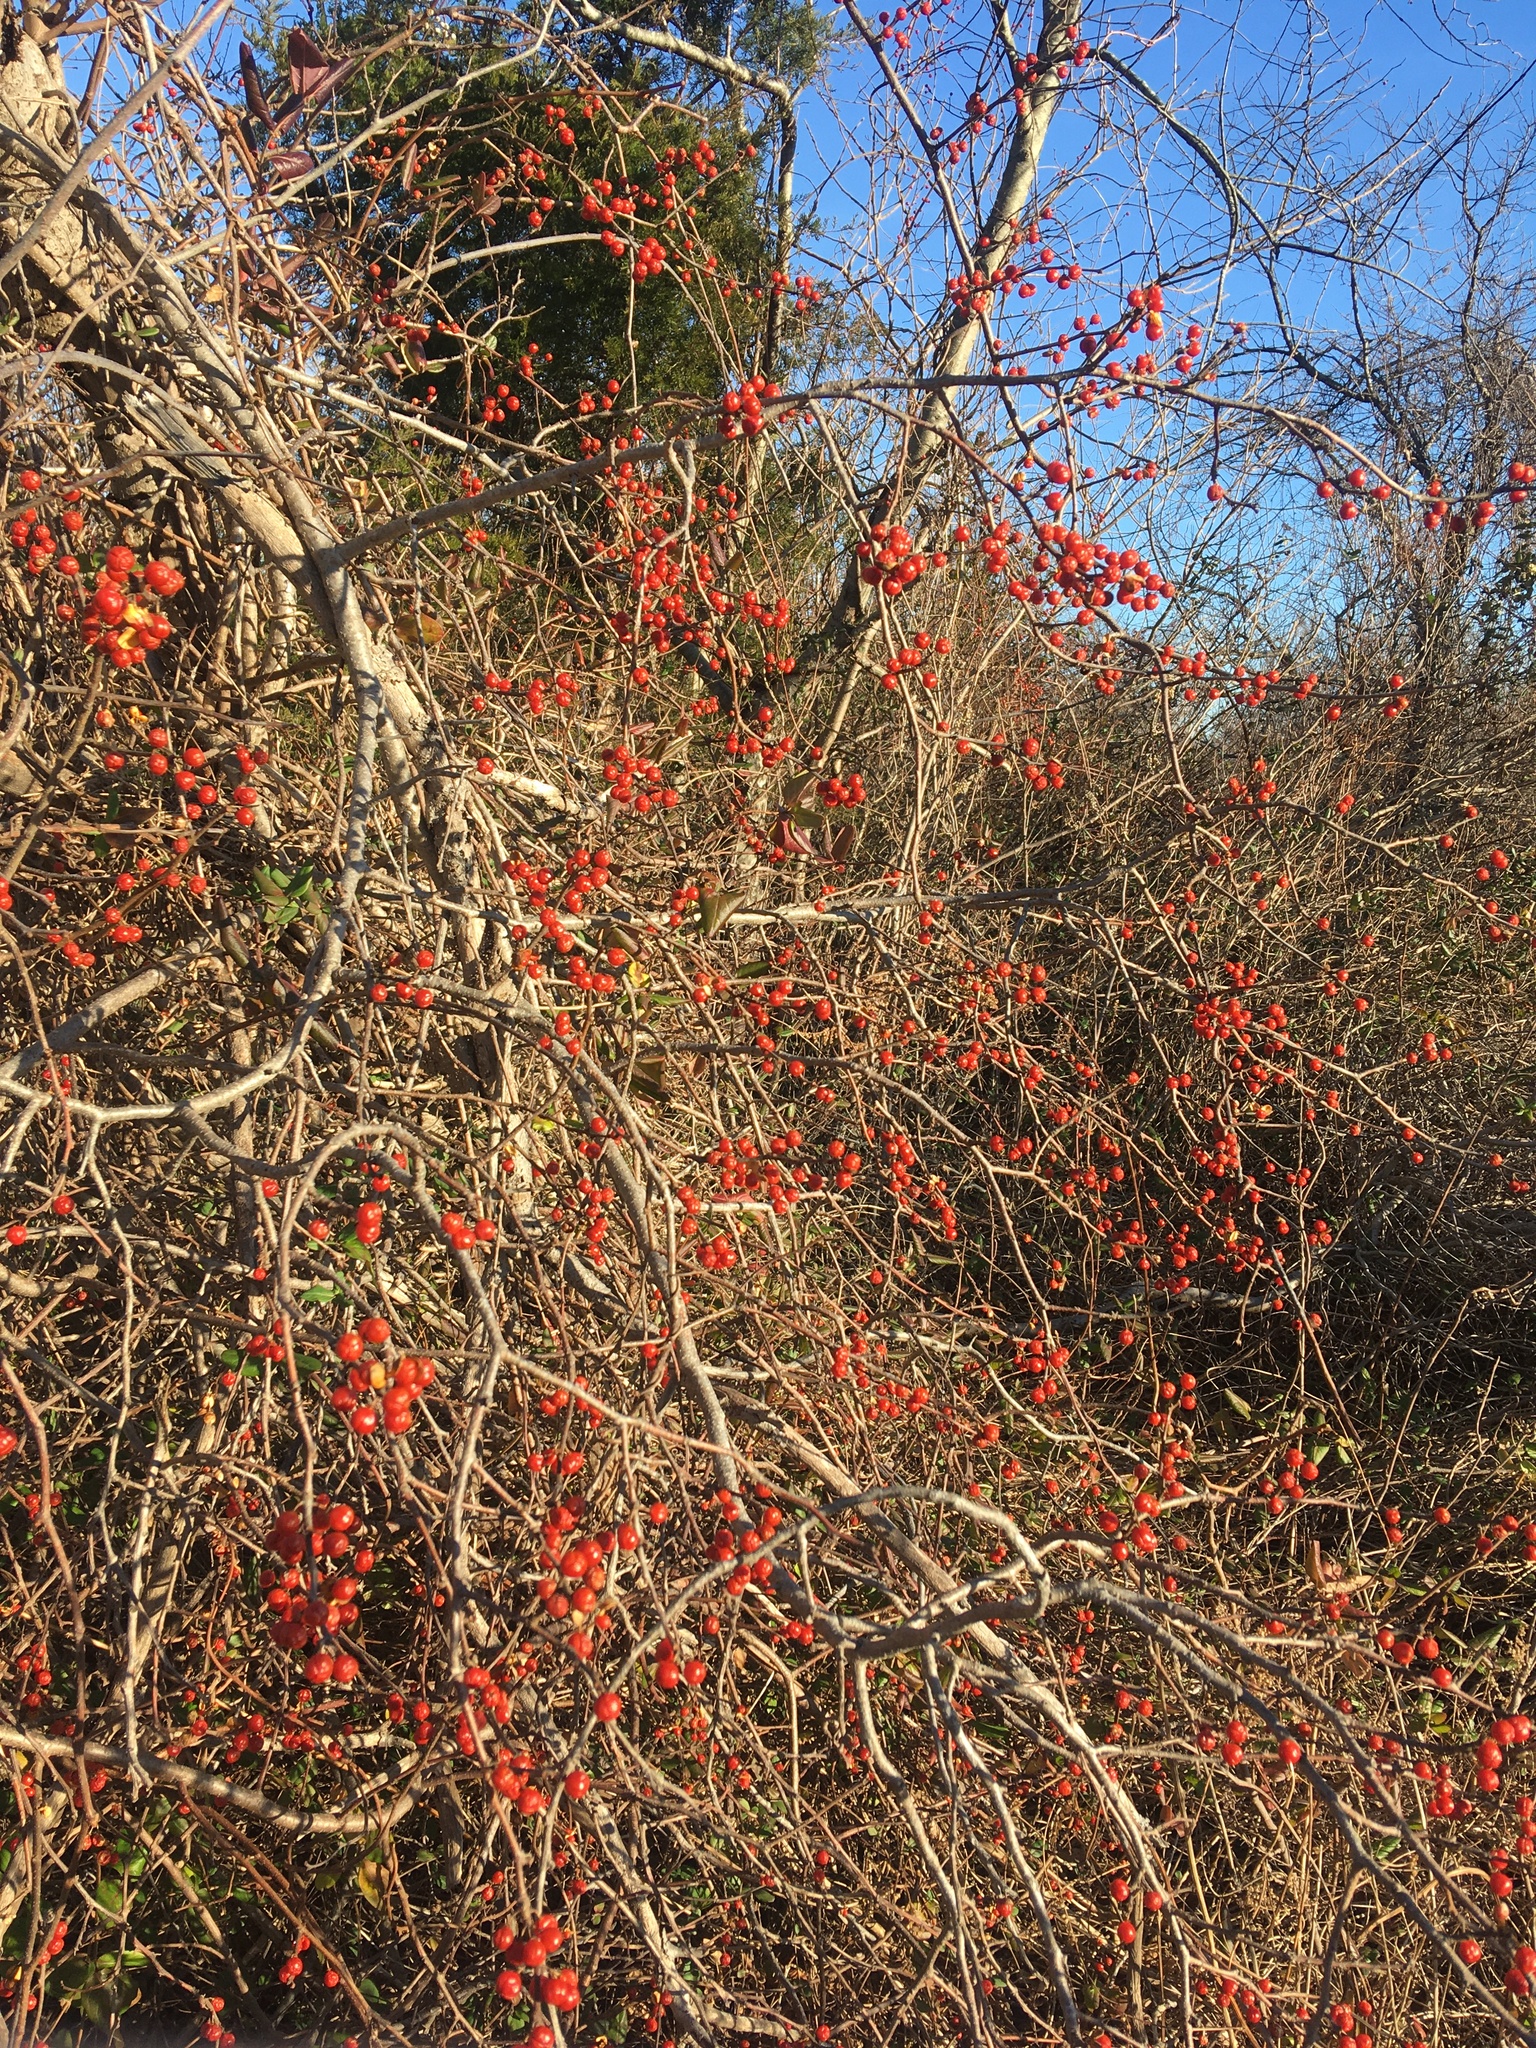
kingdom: Plantae
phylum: Tracheophyta
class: Magnoliopsida
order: Celastrales
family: Celastraceae
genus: Celastrus
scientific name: Celastrus orbiculatus
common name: Oriental bittersweet
